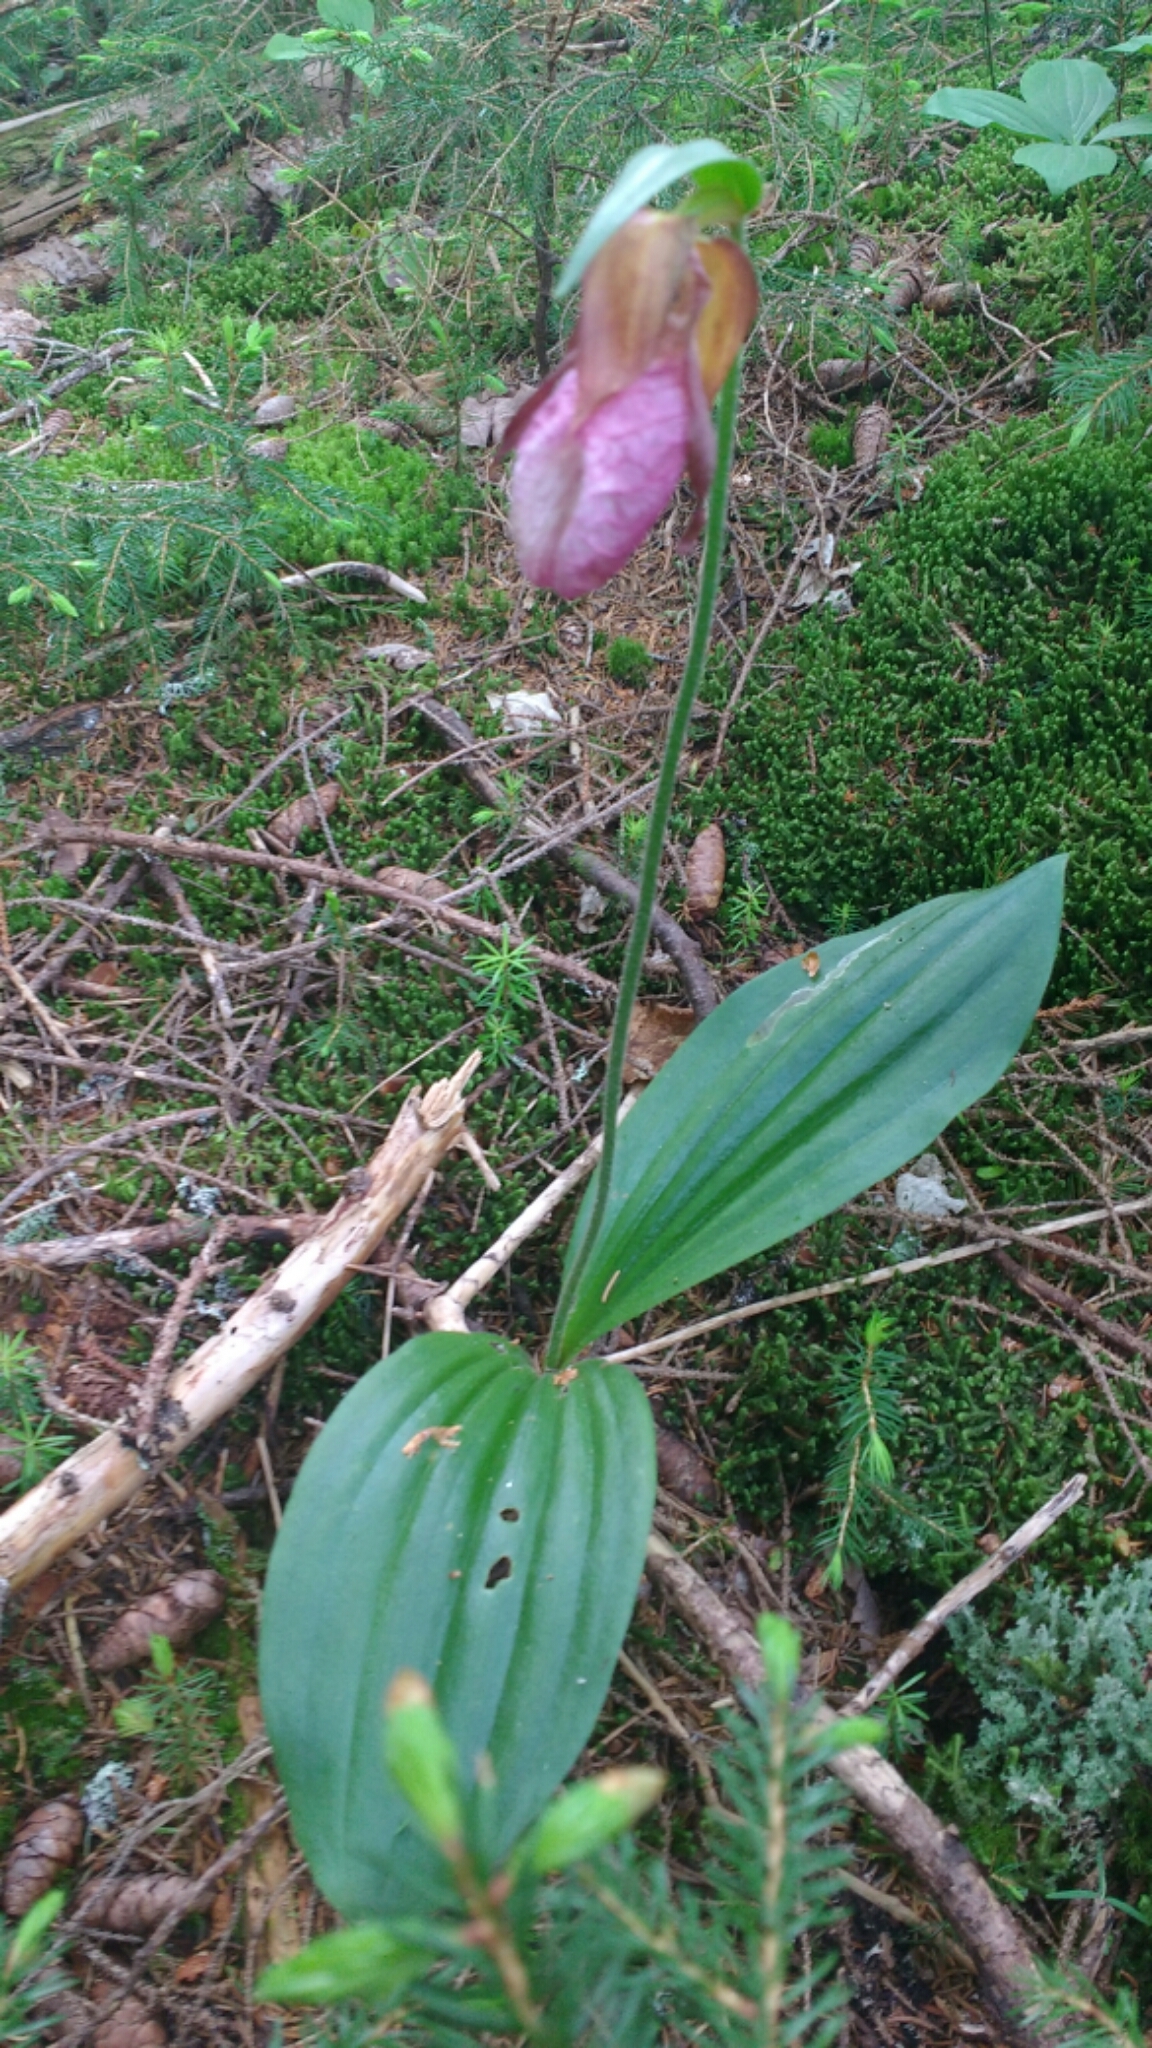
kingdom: Plantae
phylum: Tracheophyta
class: Liliopsida
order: Asparagales
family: Orchidaceae
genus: Cypripedium
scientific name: Cypripedium acaule
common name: Pink lady's-slipper
